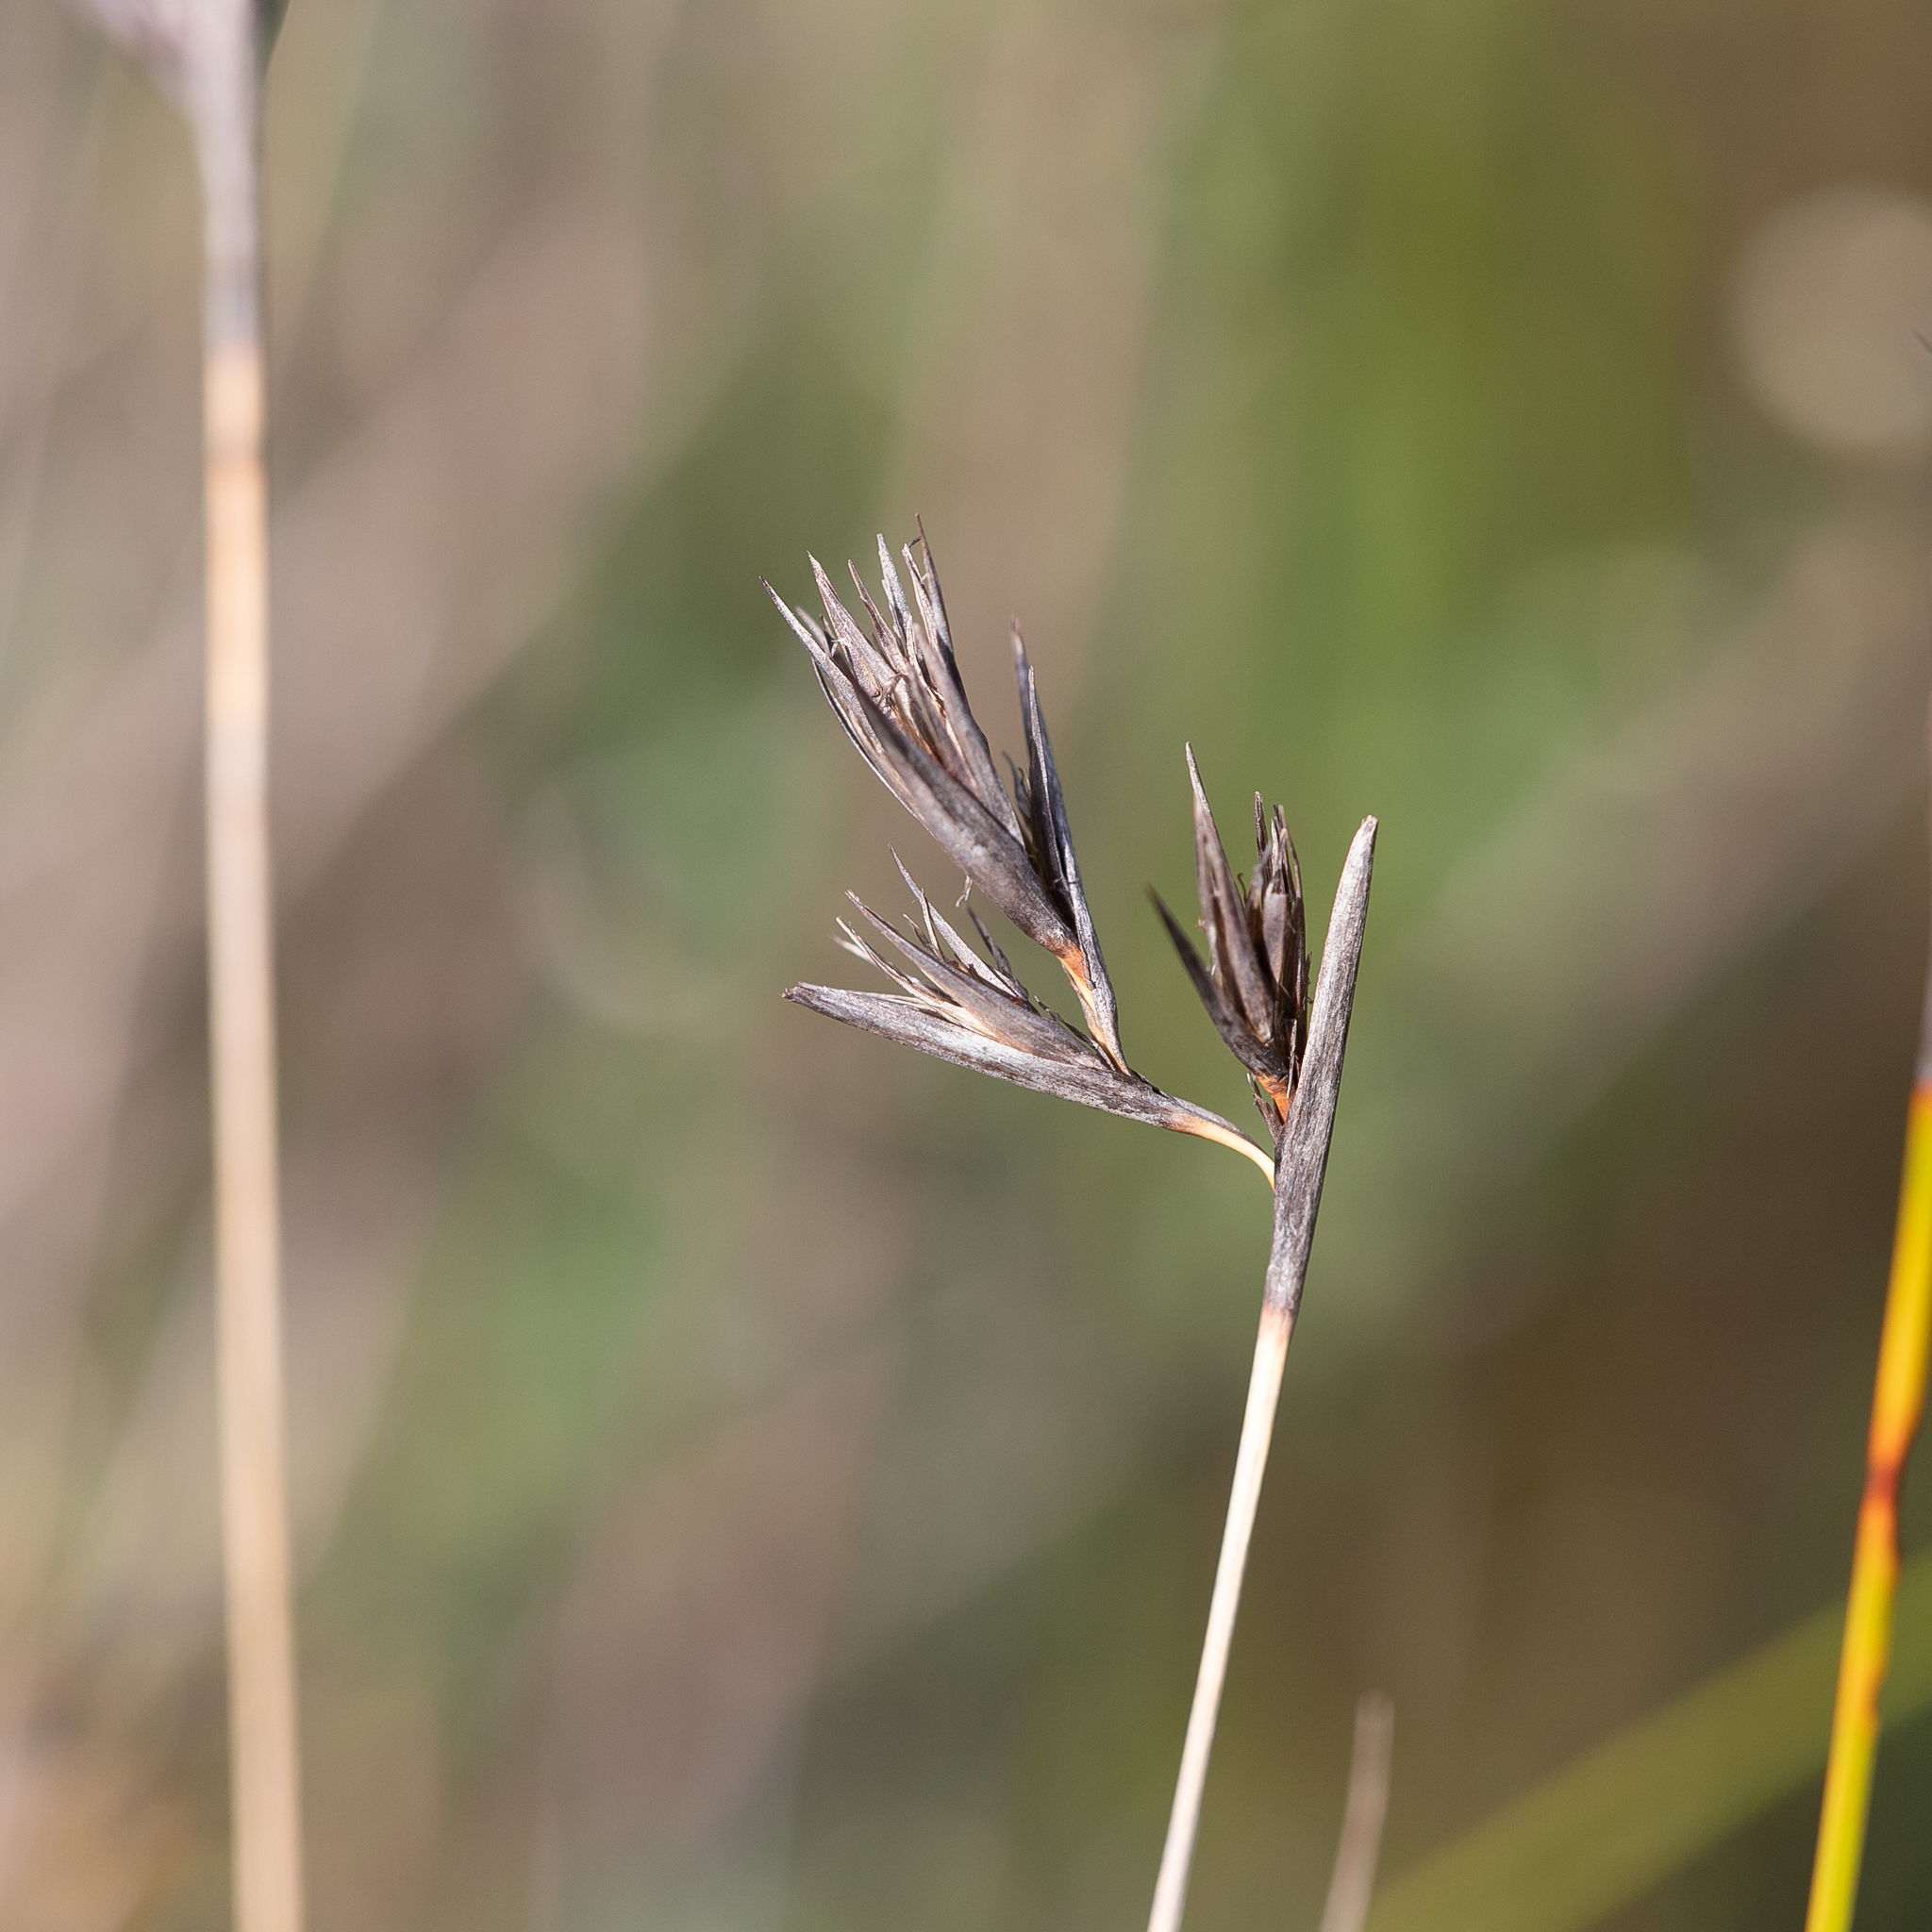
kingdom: Plantae
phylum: Tracheophyta
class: Liliopsida
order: Poales
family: Cyperaceae
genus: Lepidosperma
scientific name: Lepidosperma carphoides
